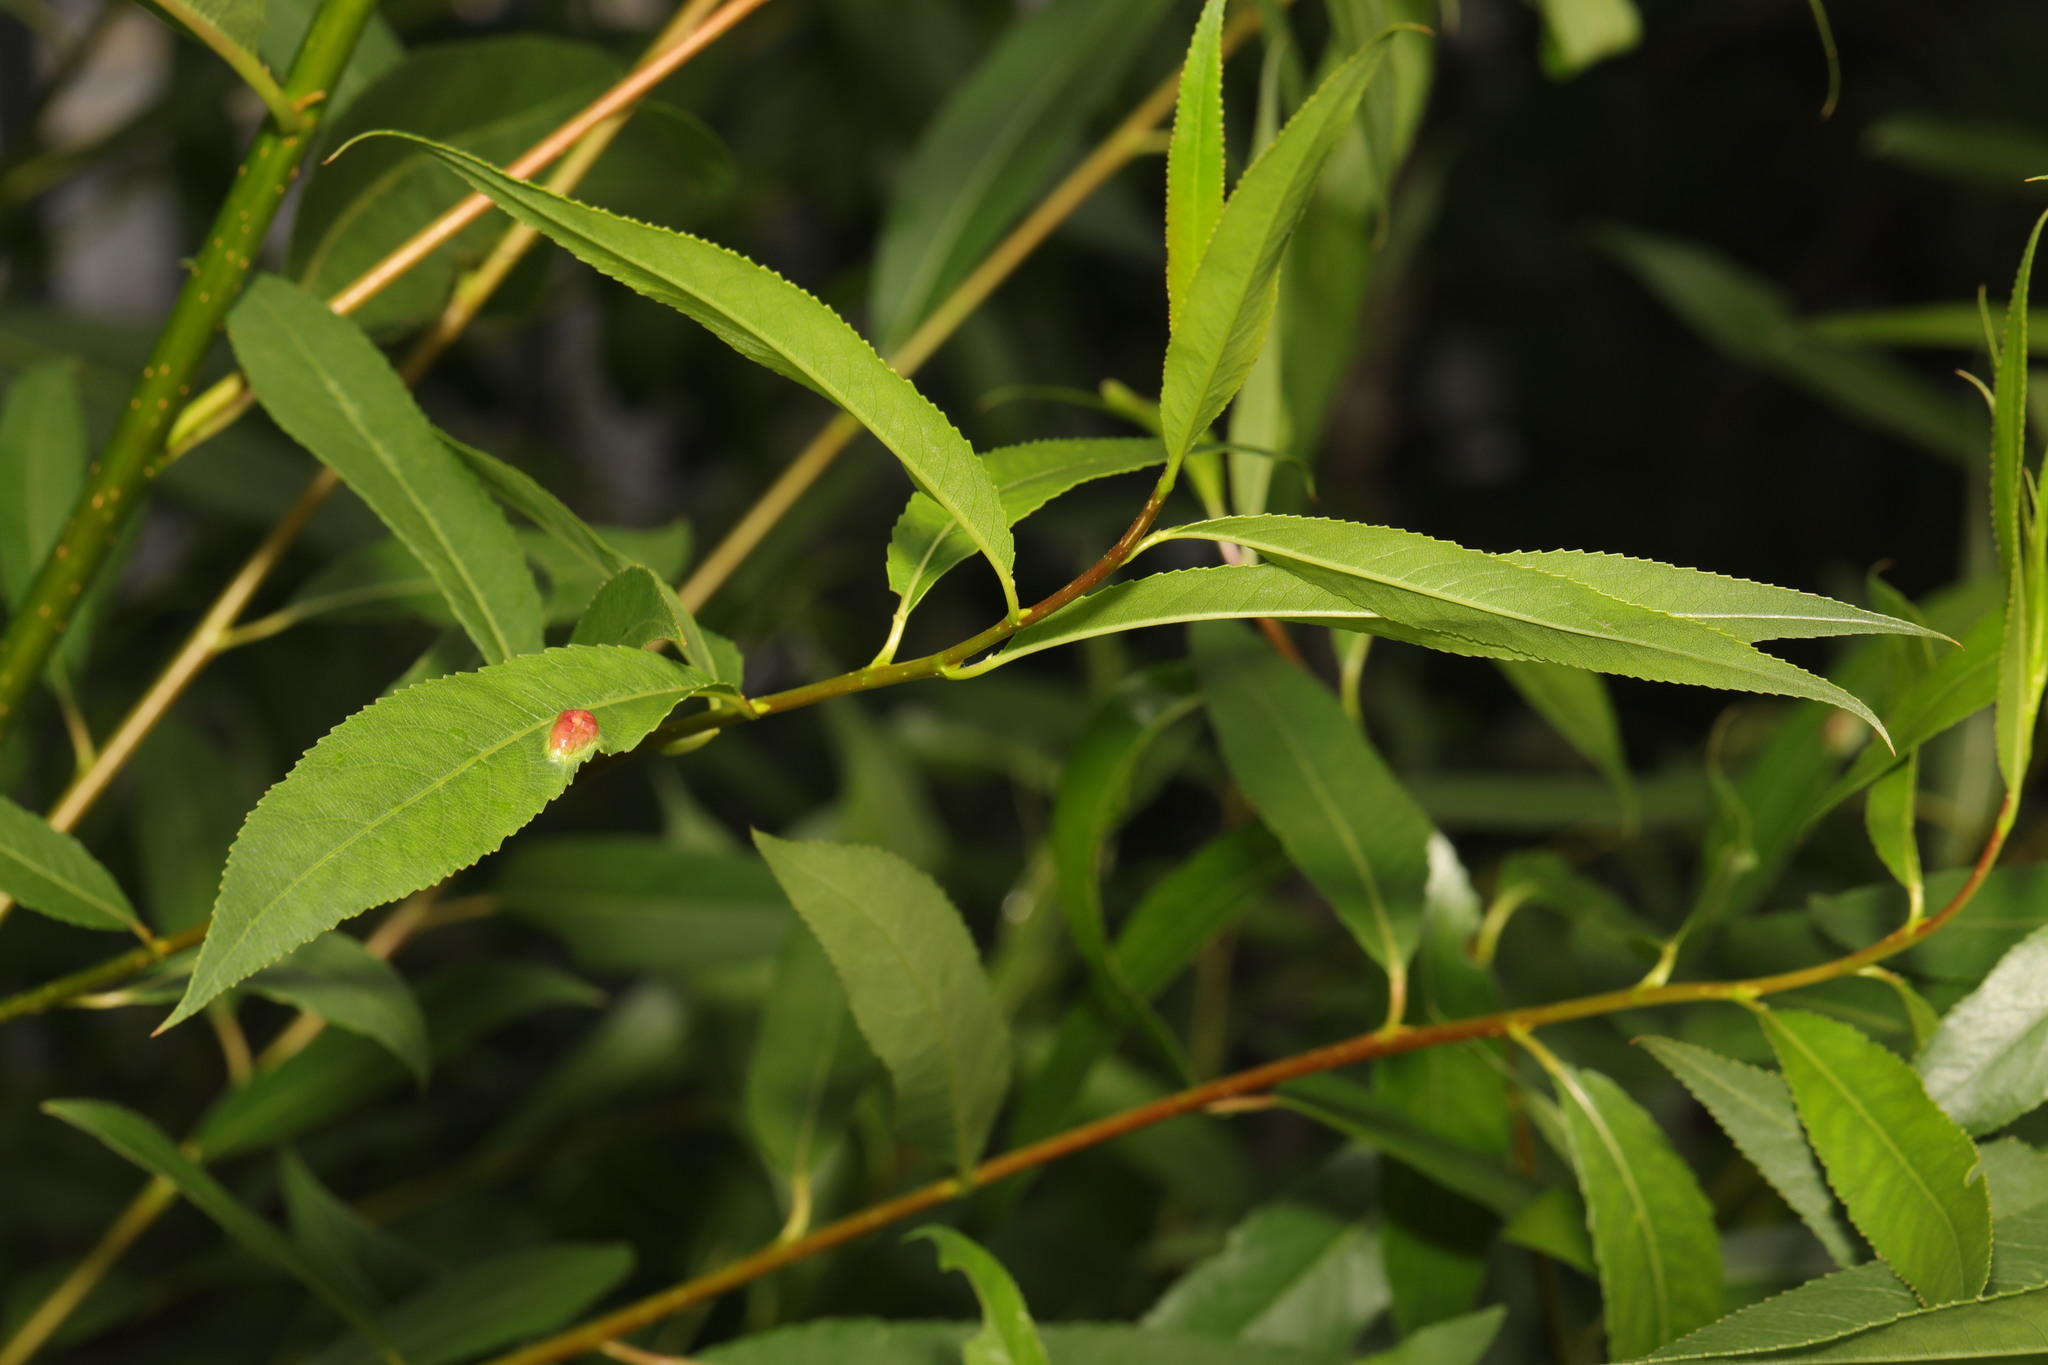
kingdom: Plantae
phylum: Tracheophyta
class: Magnoliopsida
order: Malpighiales
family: Salicaceae
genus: Salix
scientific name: Salix fragilis
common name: Crack willow
